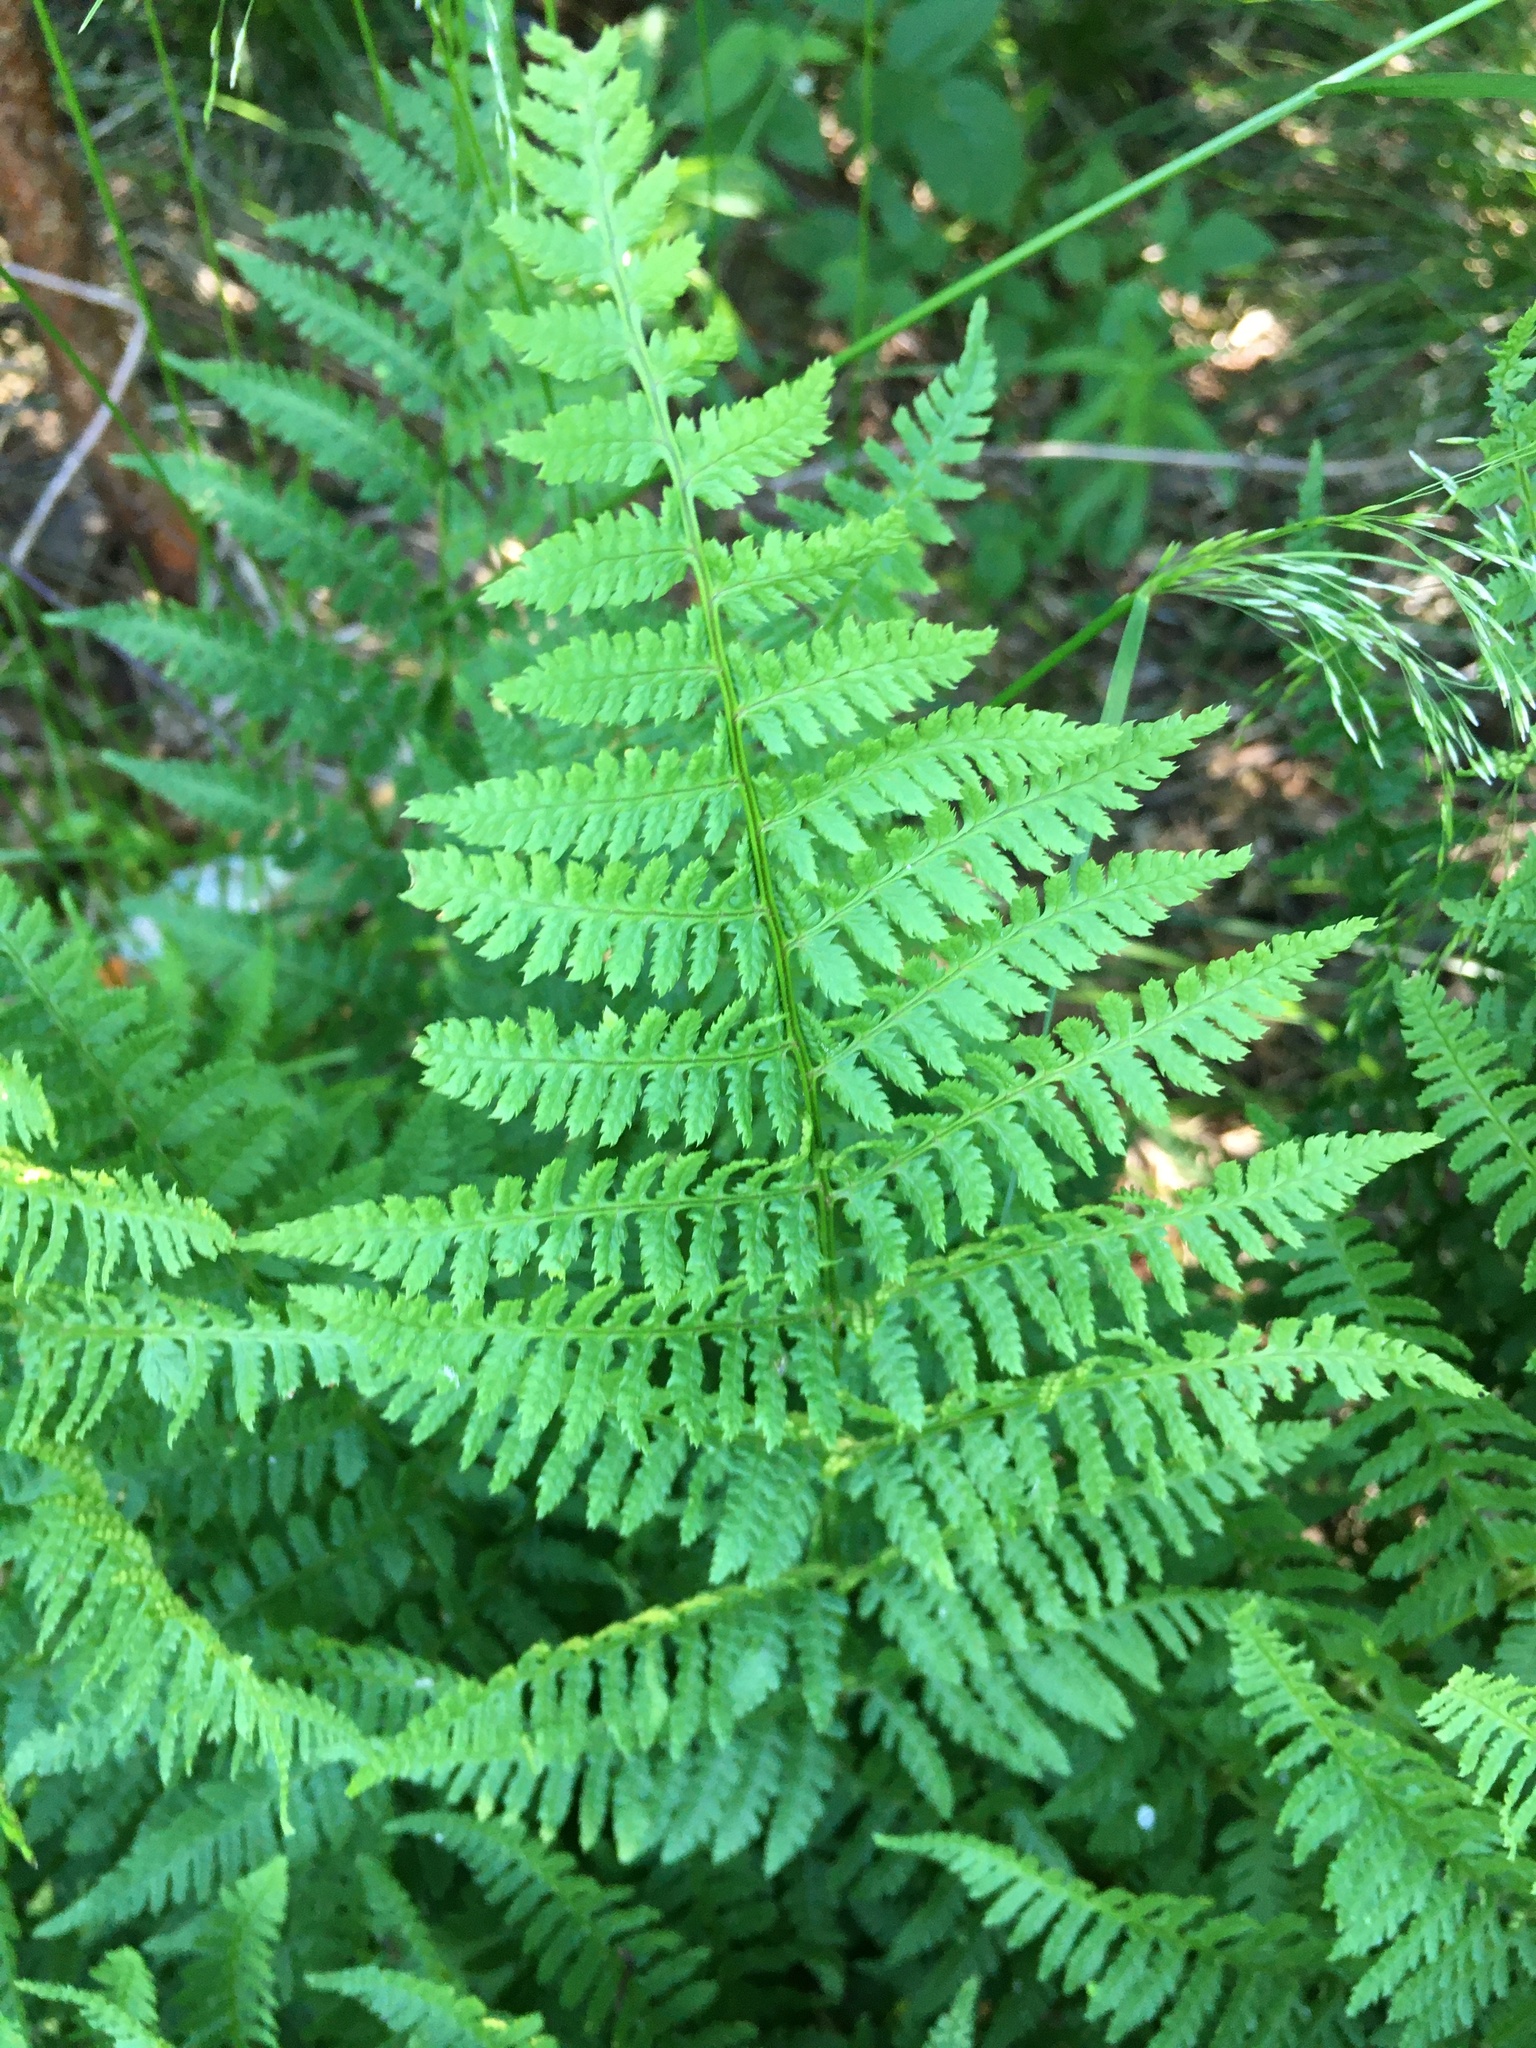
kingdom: Plantae
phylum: Tracheophyta
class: Polypodiopsida
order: Polypodiales
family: Athyriaceae
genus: Athyrium
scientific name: Athyrium filix-femina
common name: Lady fern
